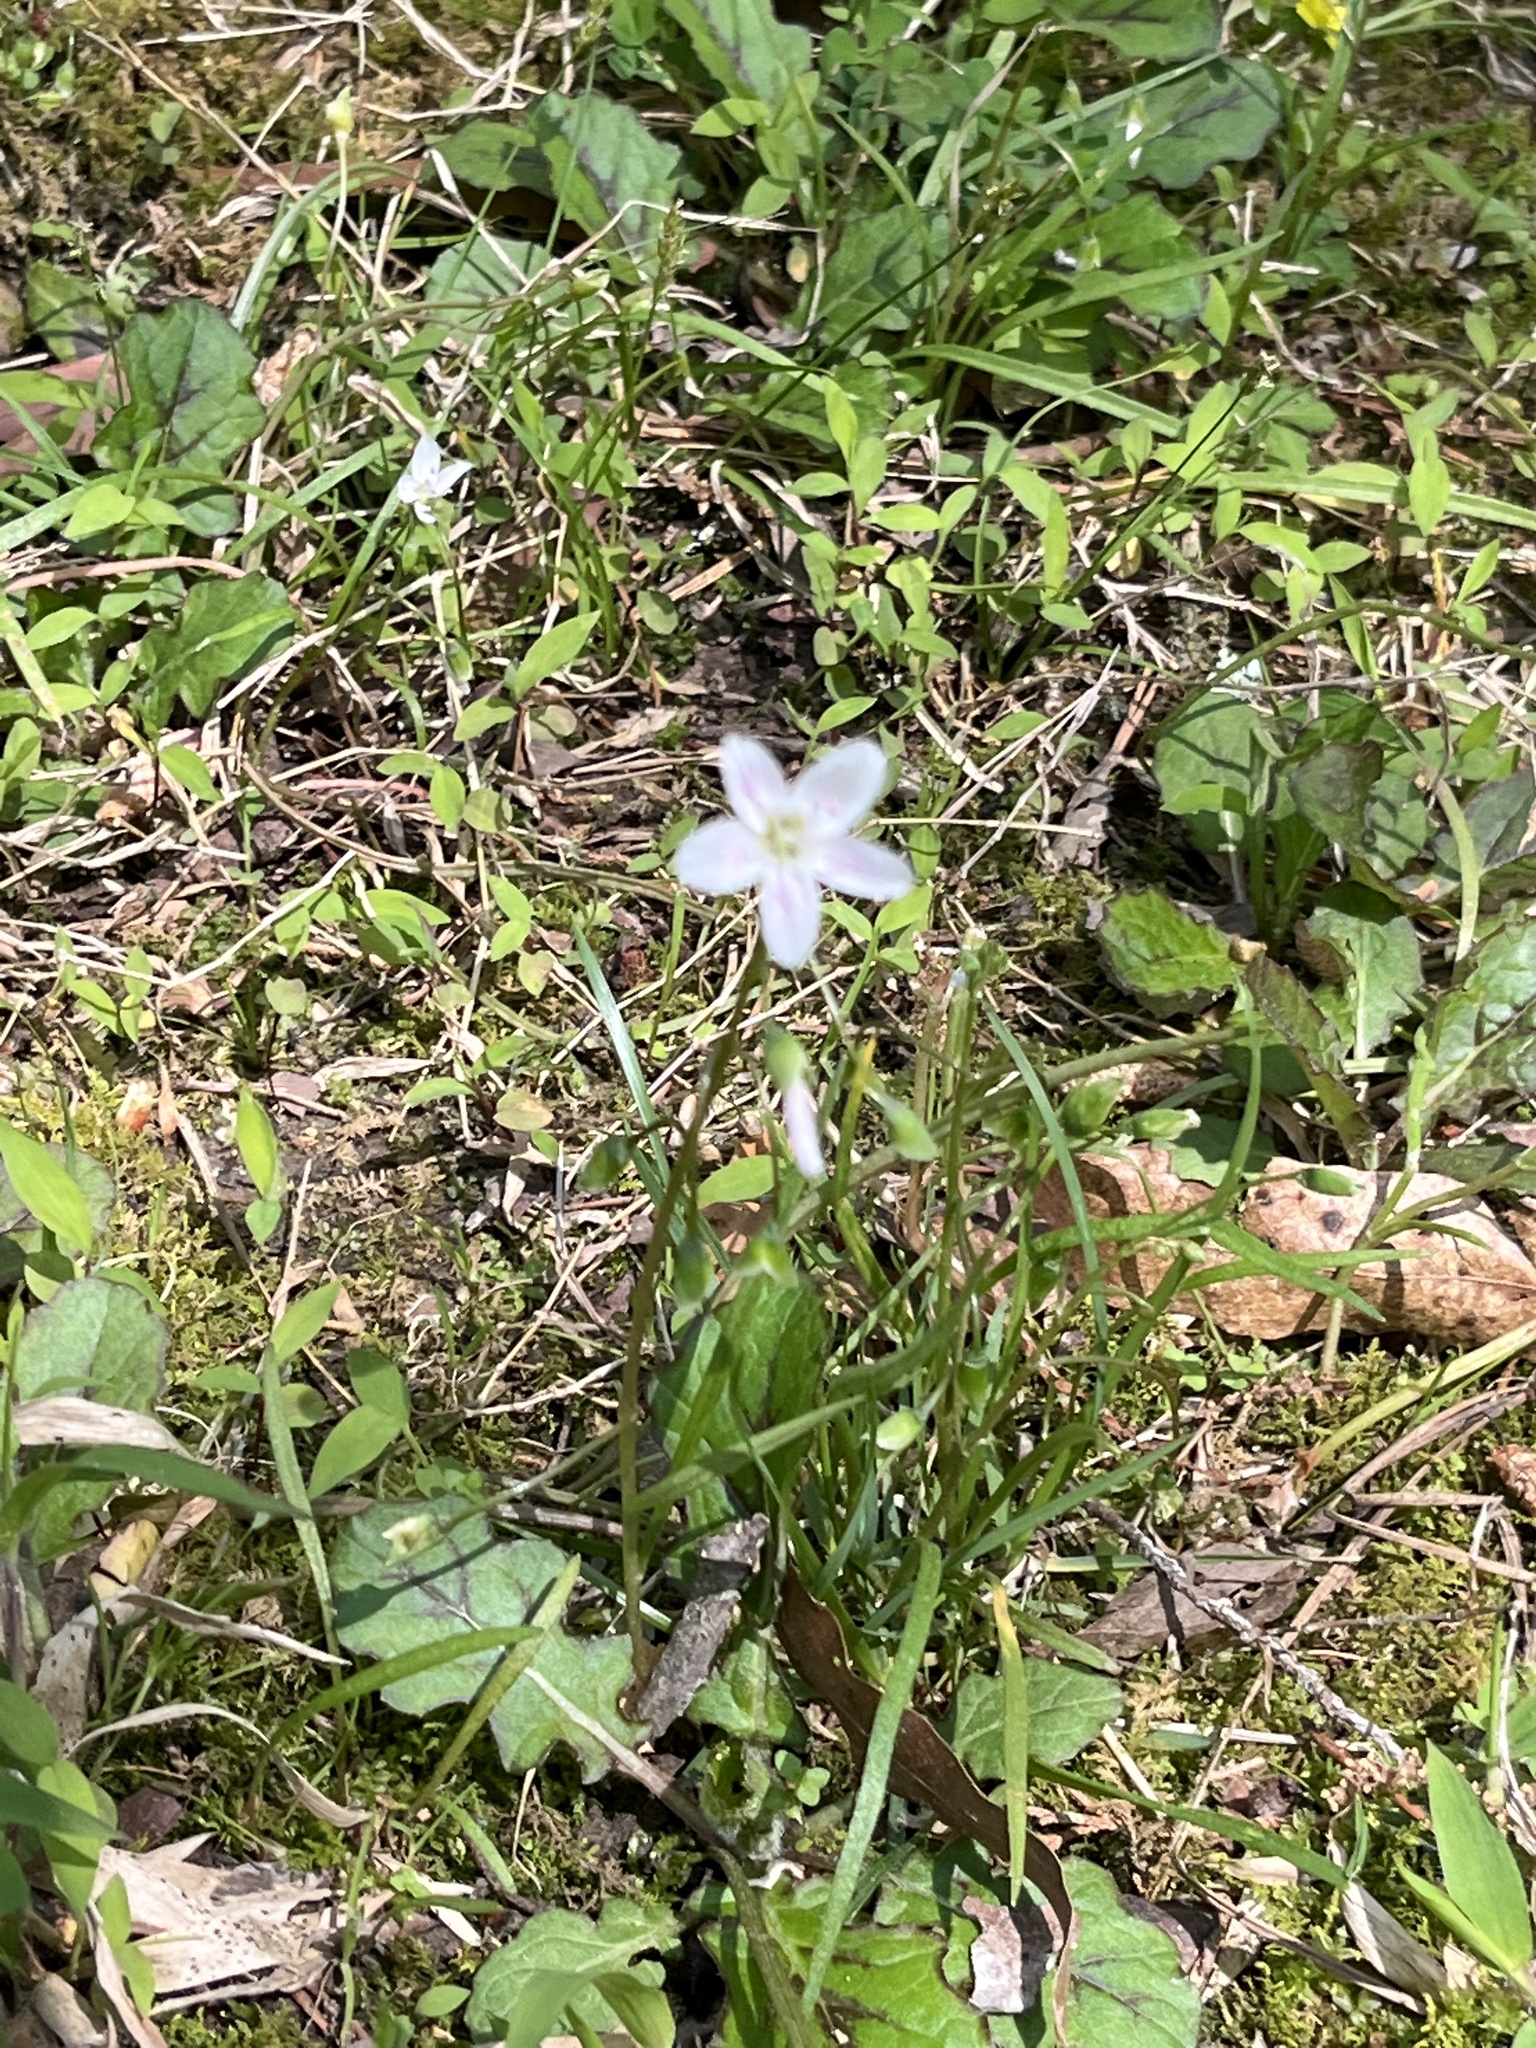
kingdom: Plantae
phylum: Tracheophyta
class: Magnoliopsida
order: Caryophyllales
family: Montiaceae
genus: Claytonia
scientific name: Claytonia virginica
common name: Virginia springbeauty
